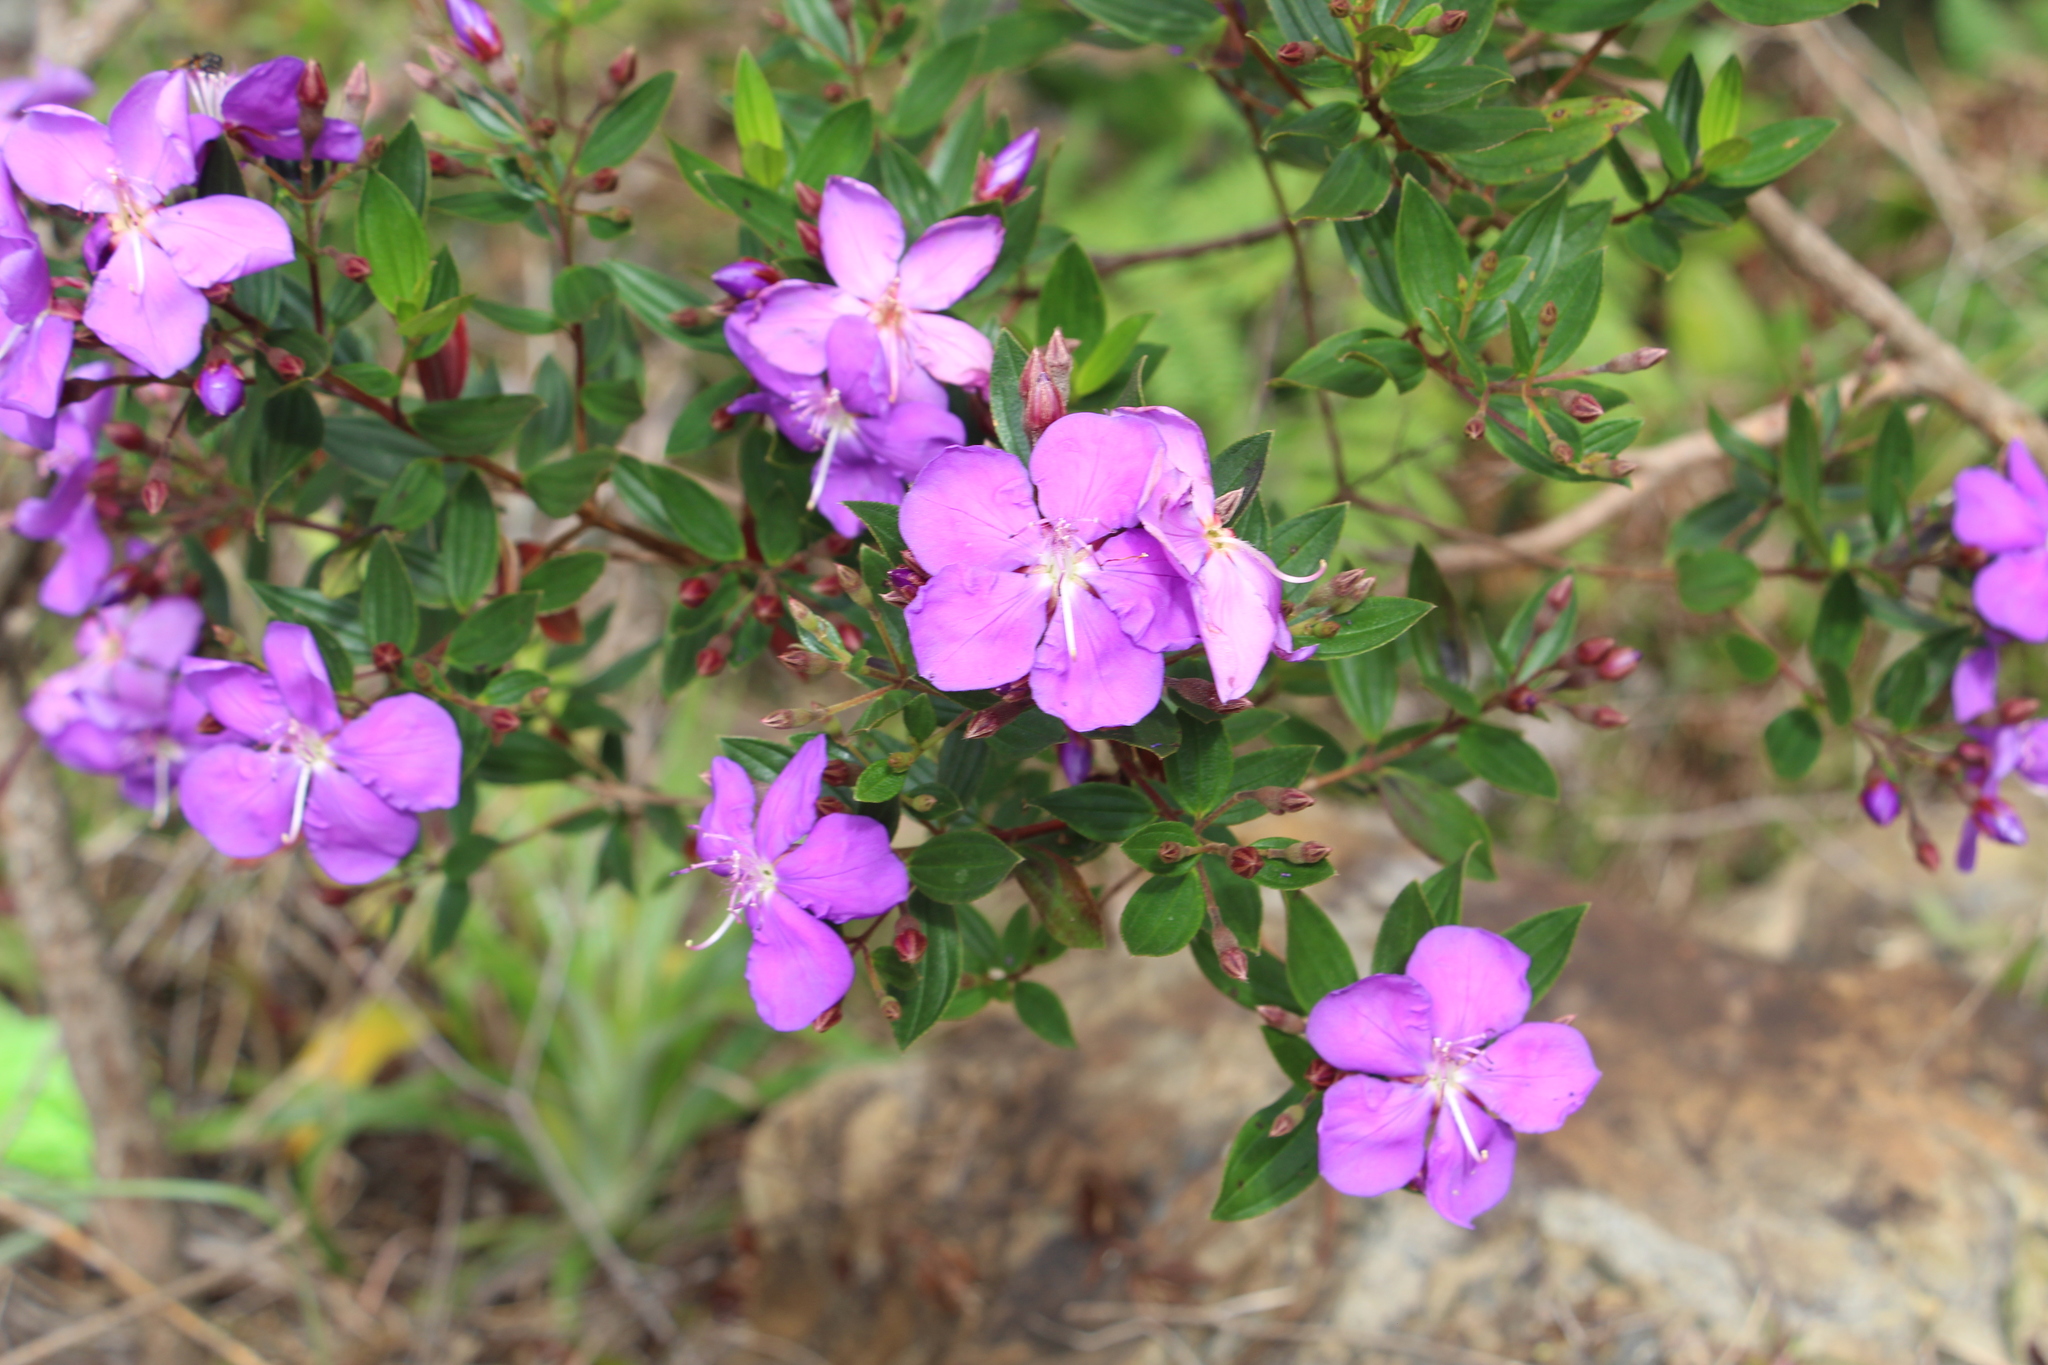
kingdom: Plantae
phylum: Tracheophyta
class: Magnoliopsida
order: Myrtales
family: Melastomataceae
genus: Pleroma
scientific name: Pleroma martiale
